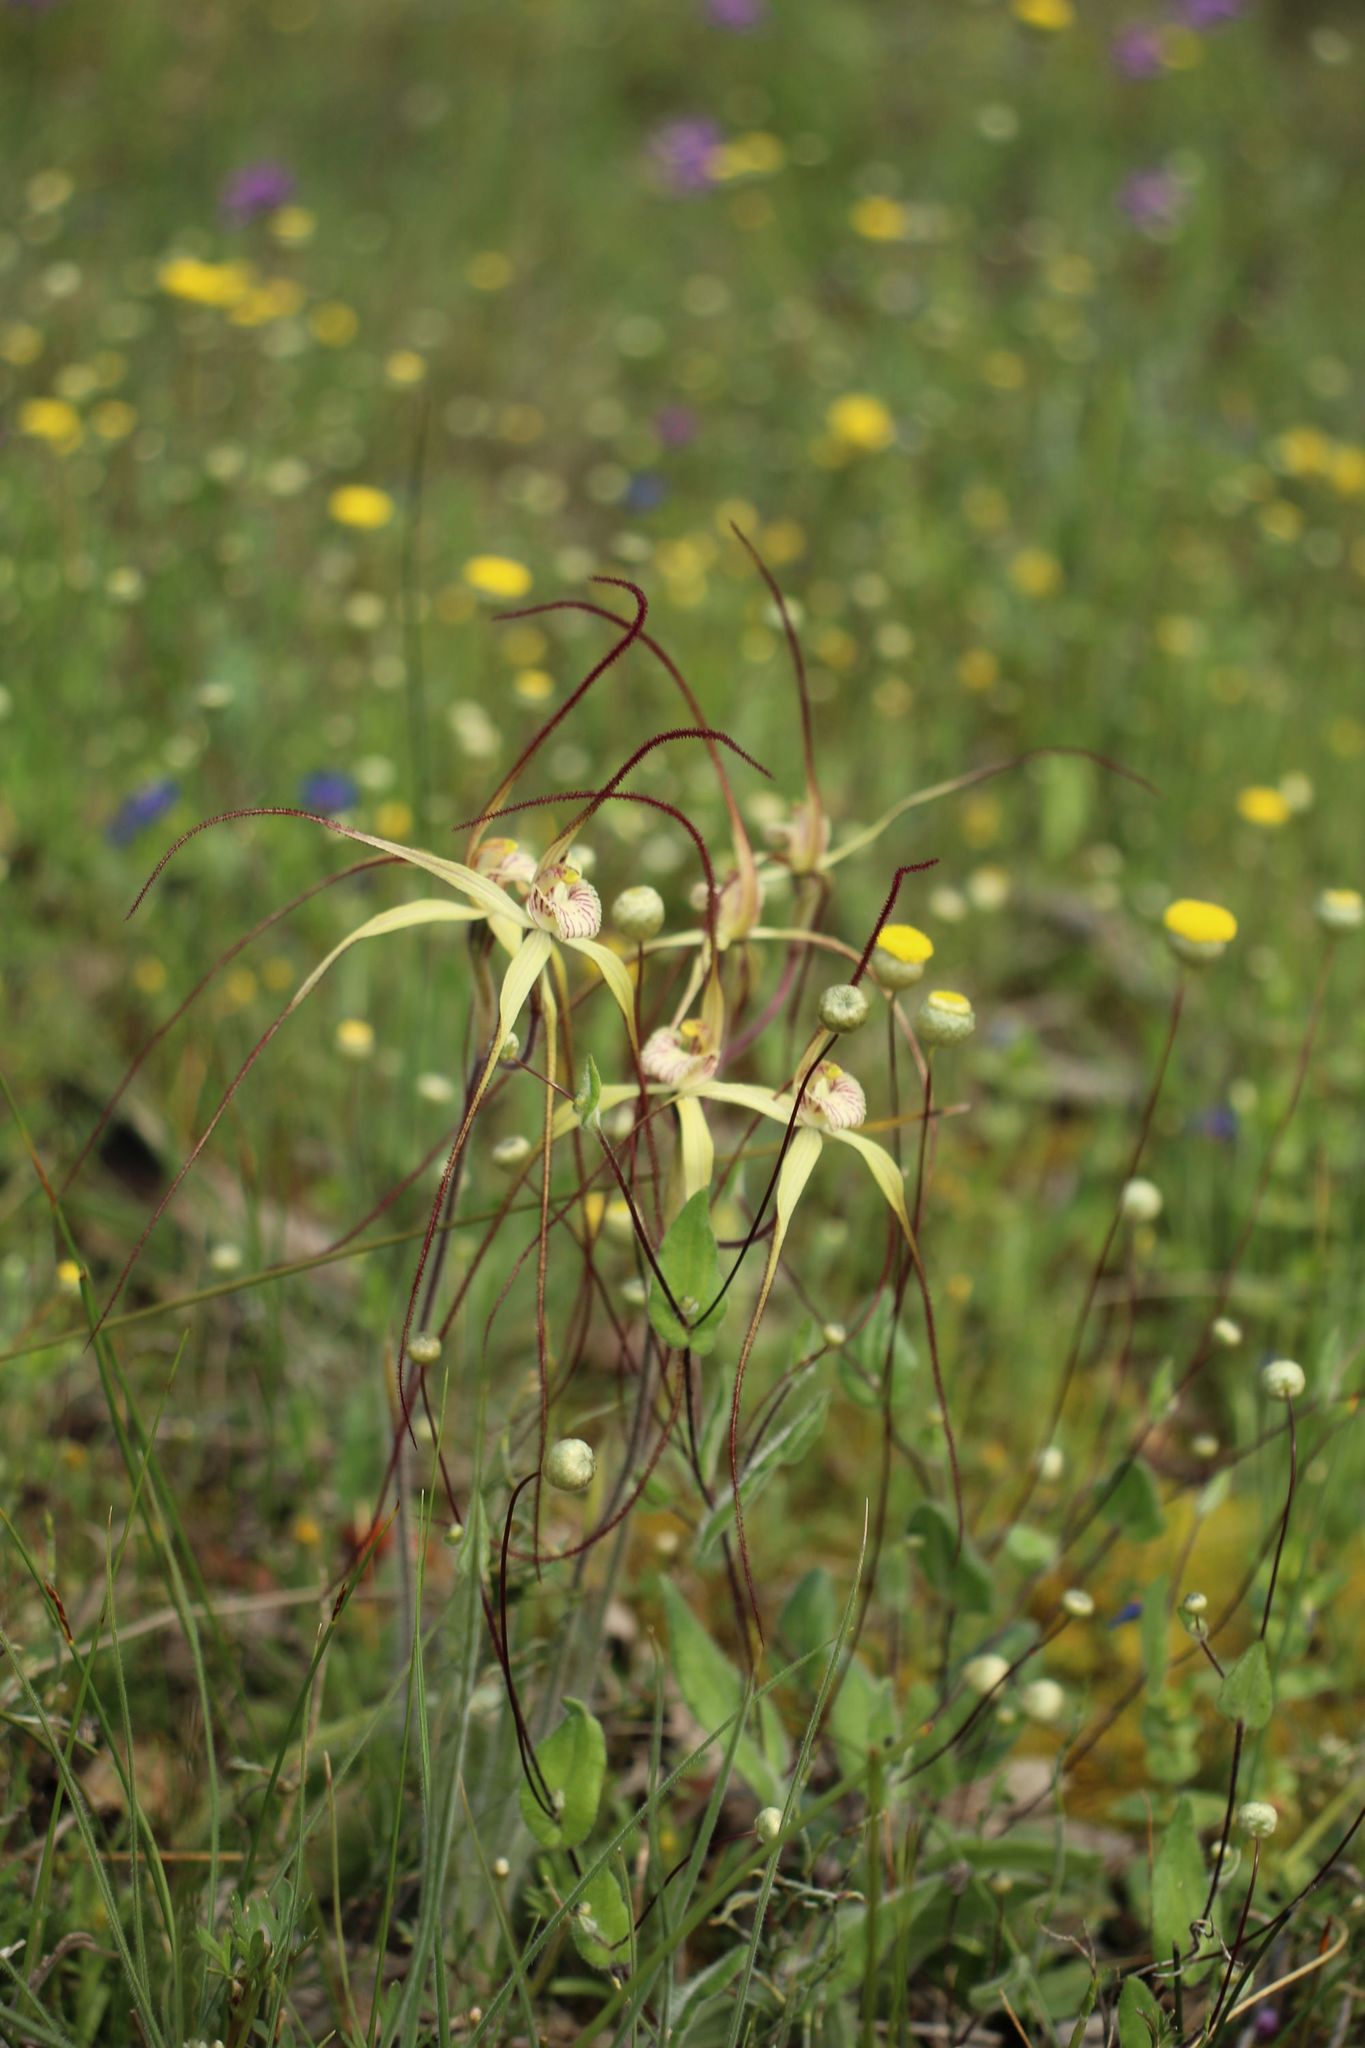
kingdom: Plantae
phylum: Tracheophyta
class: Liliopsida
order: Asparagales
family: Orchidaceae
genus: Caladenia
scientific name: Caladenia straminichila
